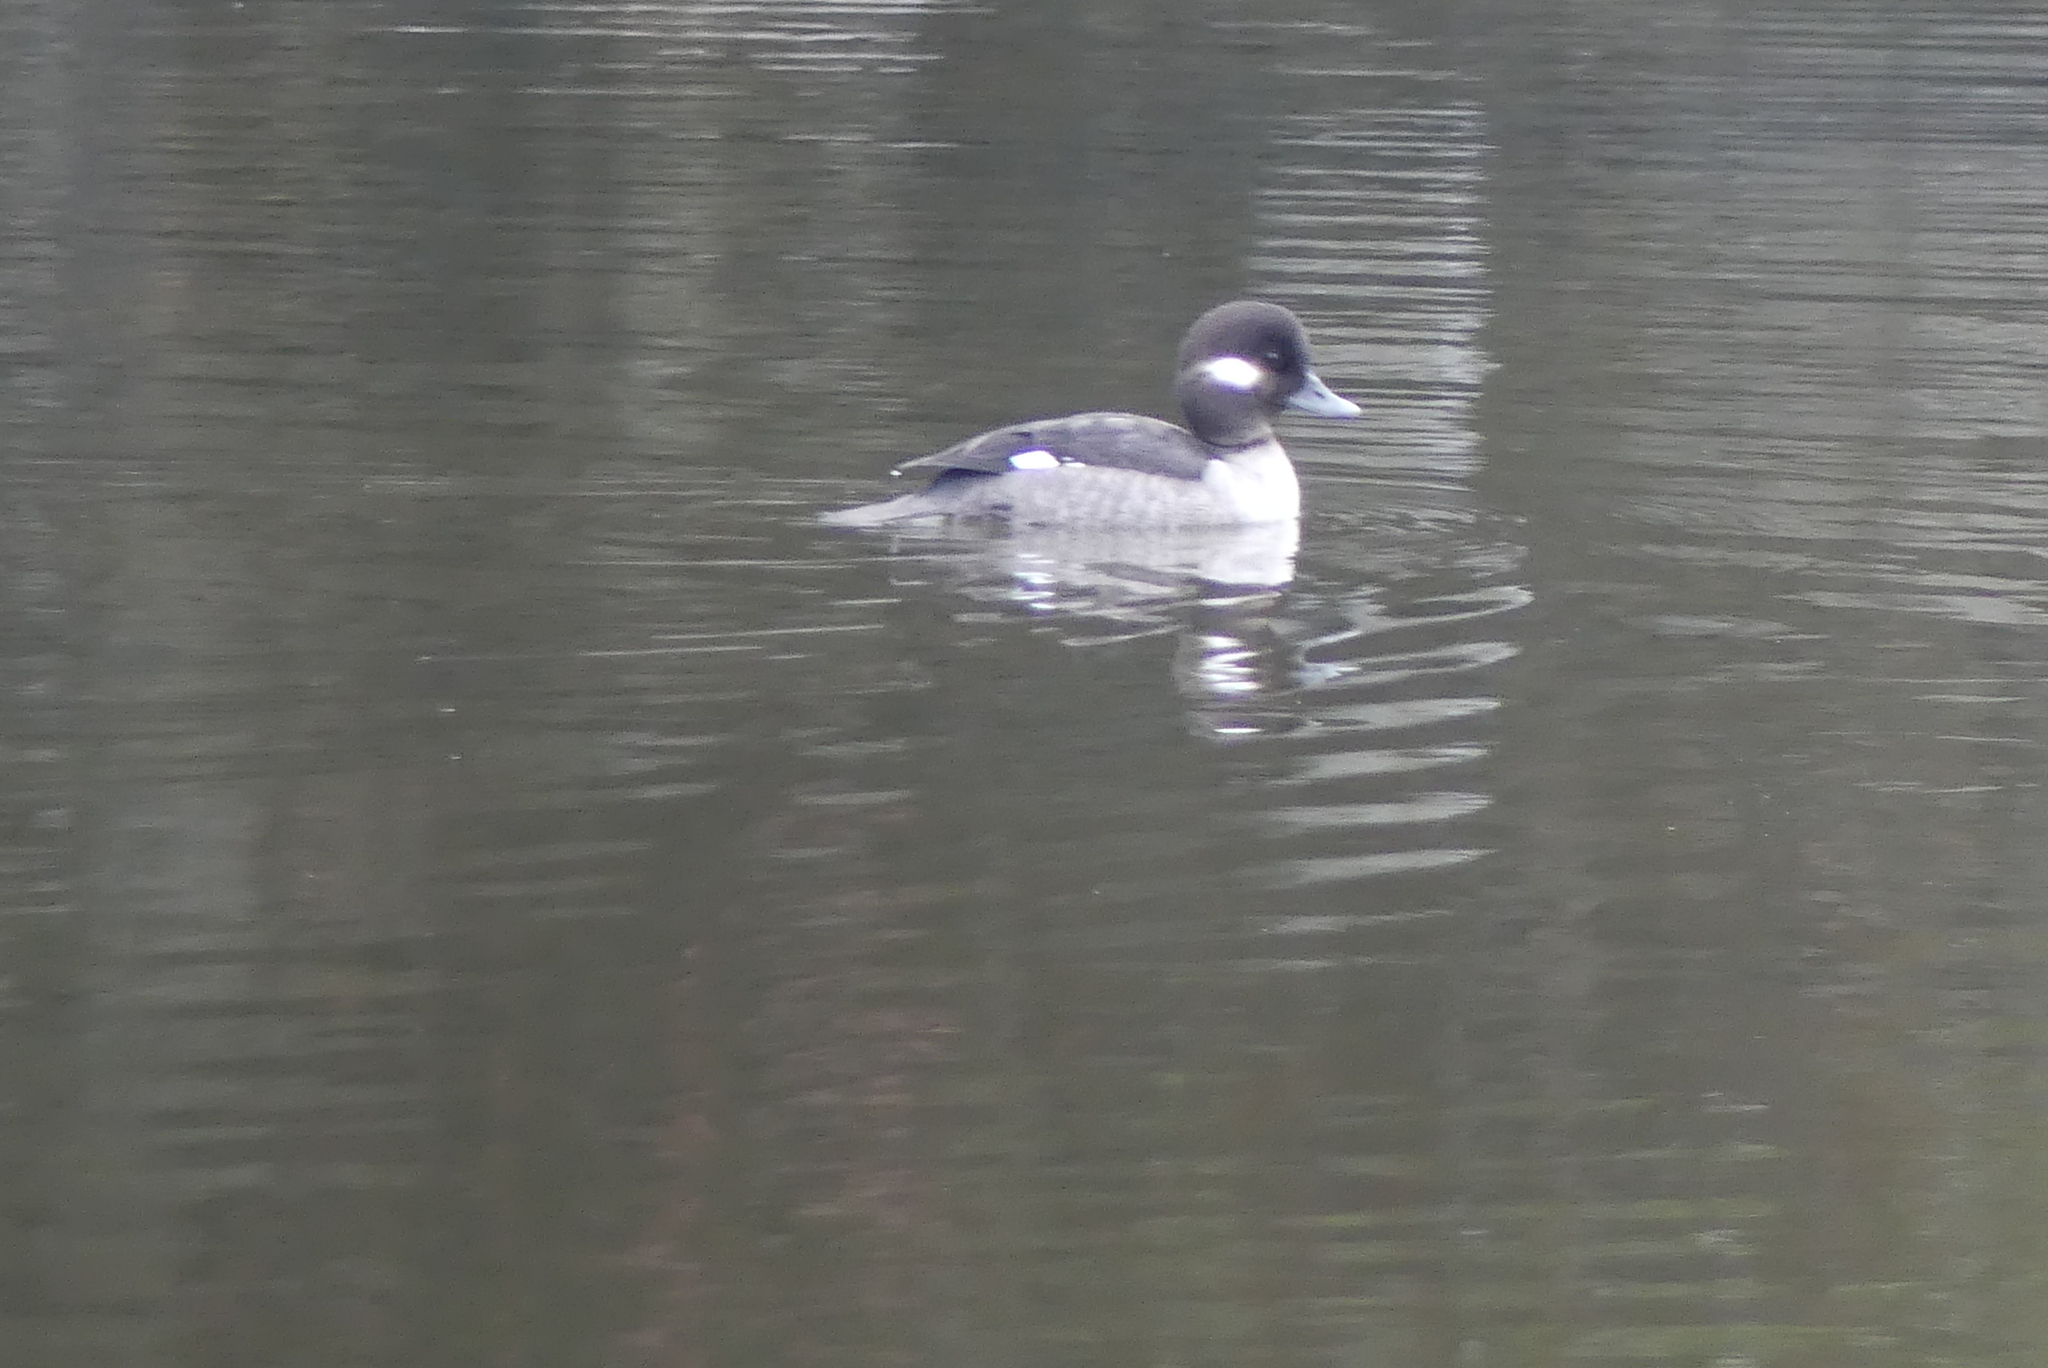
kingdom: Animalia
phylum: Chordata
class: Aves
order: Anseriformes
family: Anatidae
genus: Bucephala
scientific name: Bucephala albeola
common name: Bufflehead
